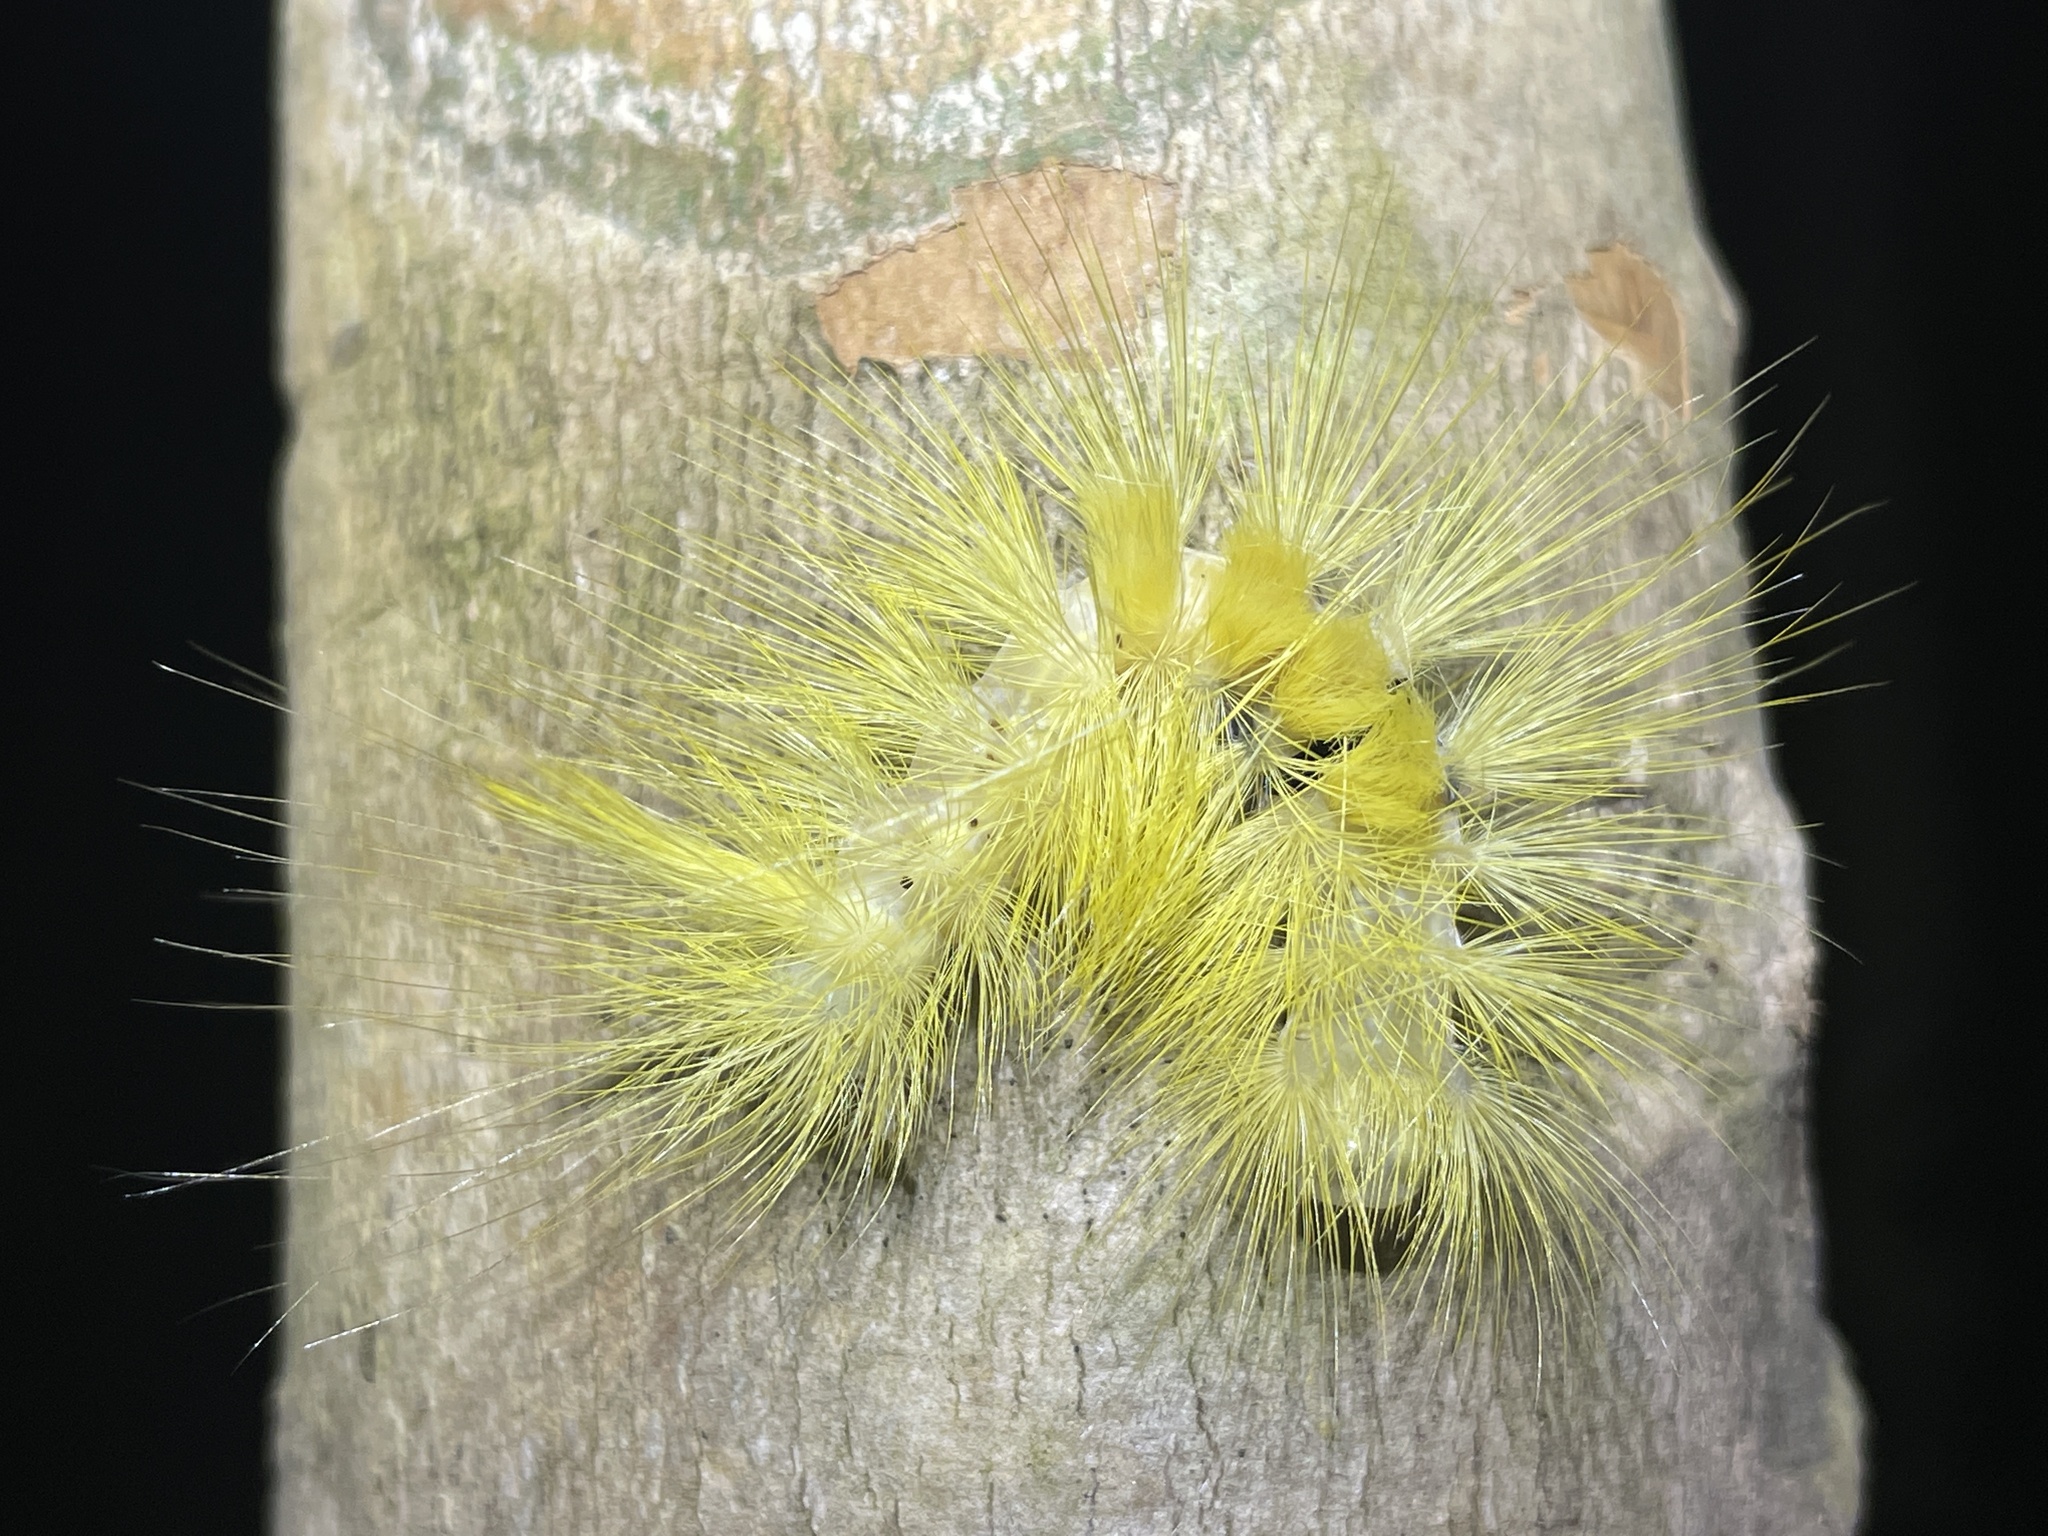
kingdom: Animalia
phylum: Arthropoda
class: Insecta
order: Lepidoptera
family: Erebidae
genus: Calliteara
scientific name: Calliteara grotei
